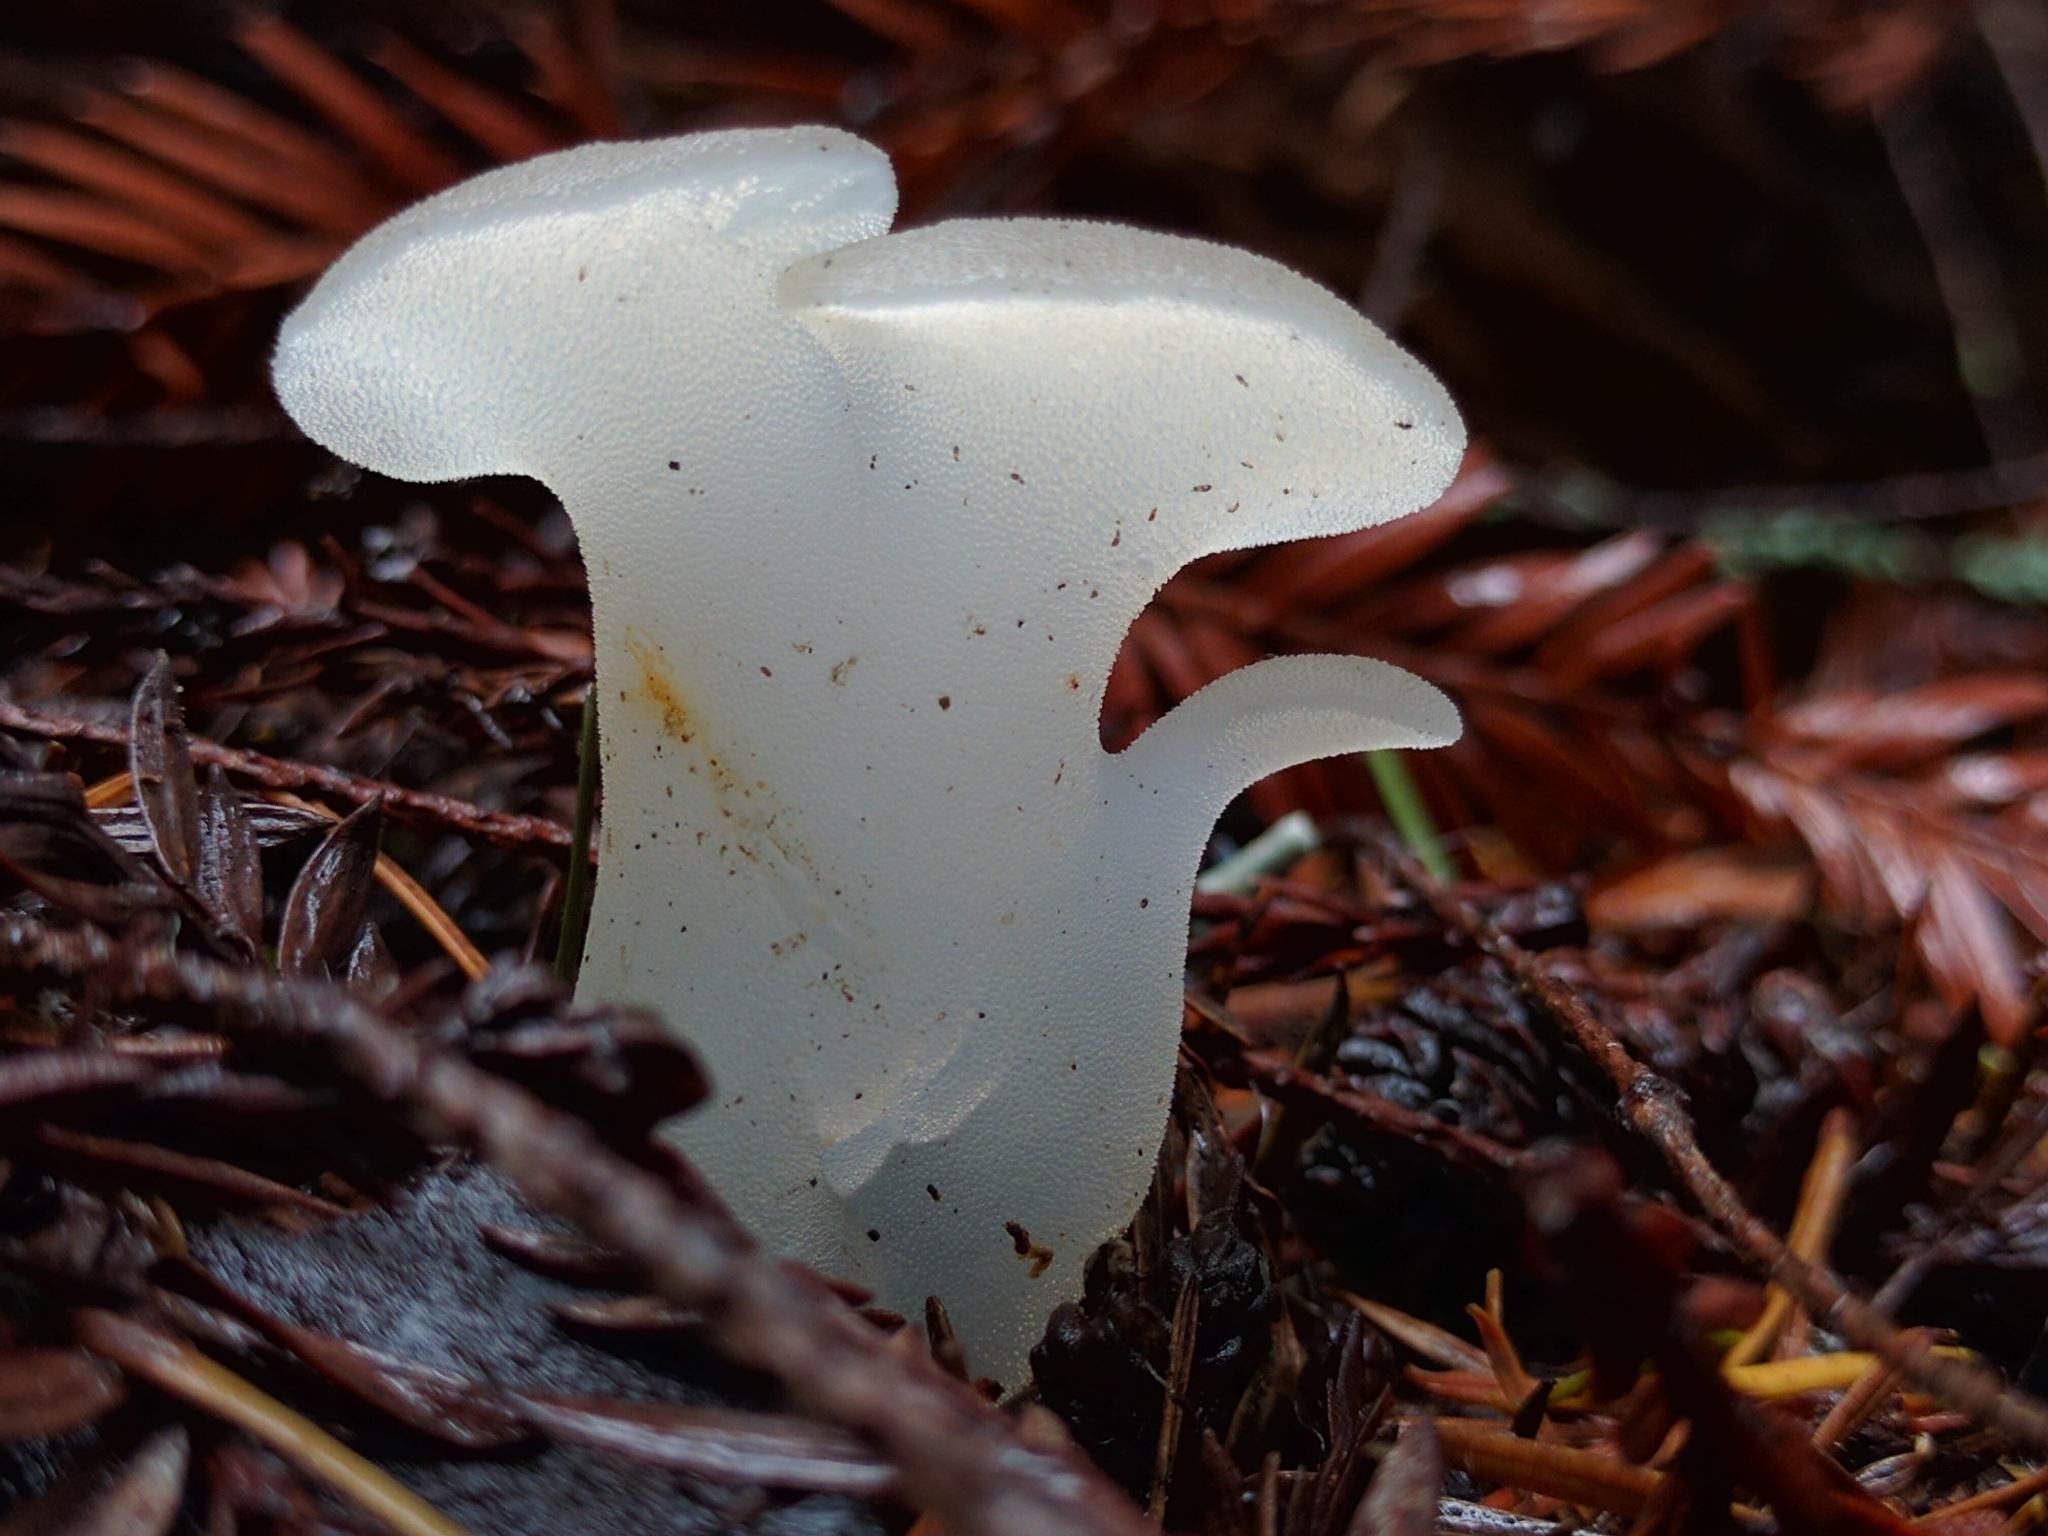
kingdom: Fungi
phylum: Basidiomycota
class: Agaricomycetes
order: Auriculariales
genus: Pseudohydnum
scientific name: Pseudohydnum gelatinosum
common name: Jelly tongue
